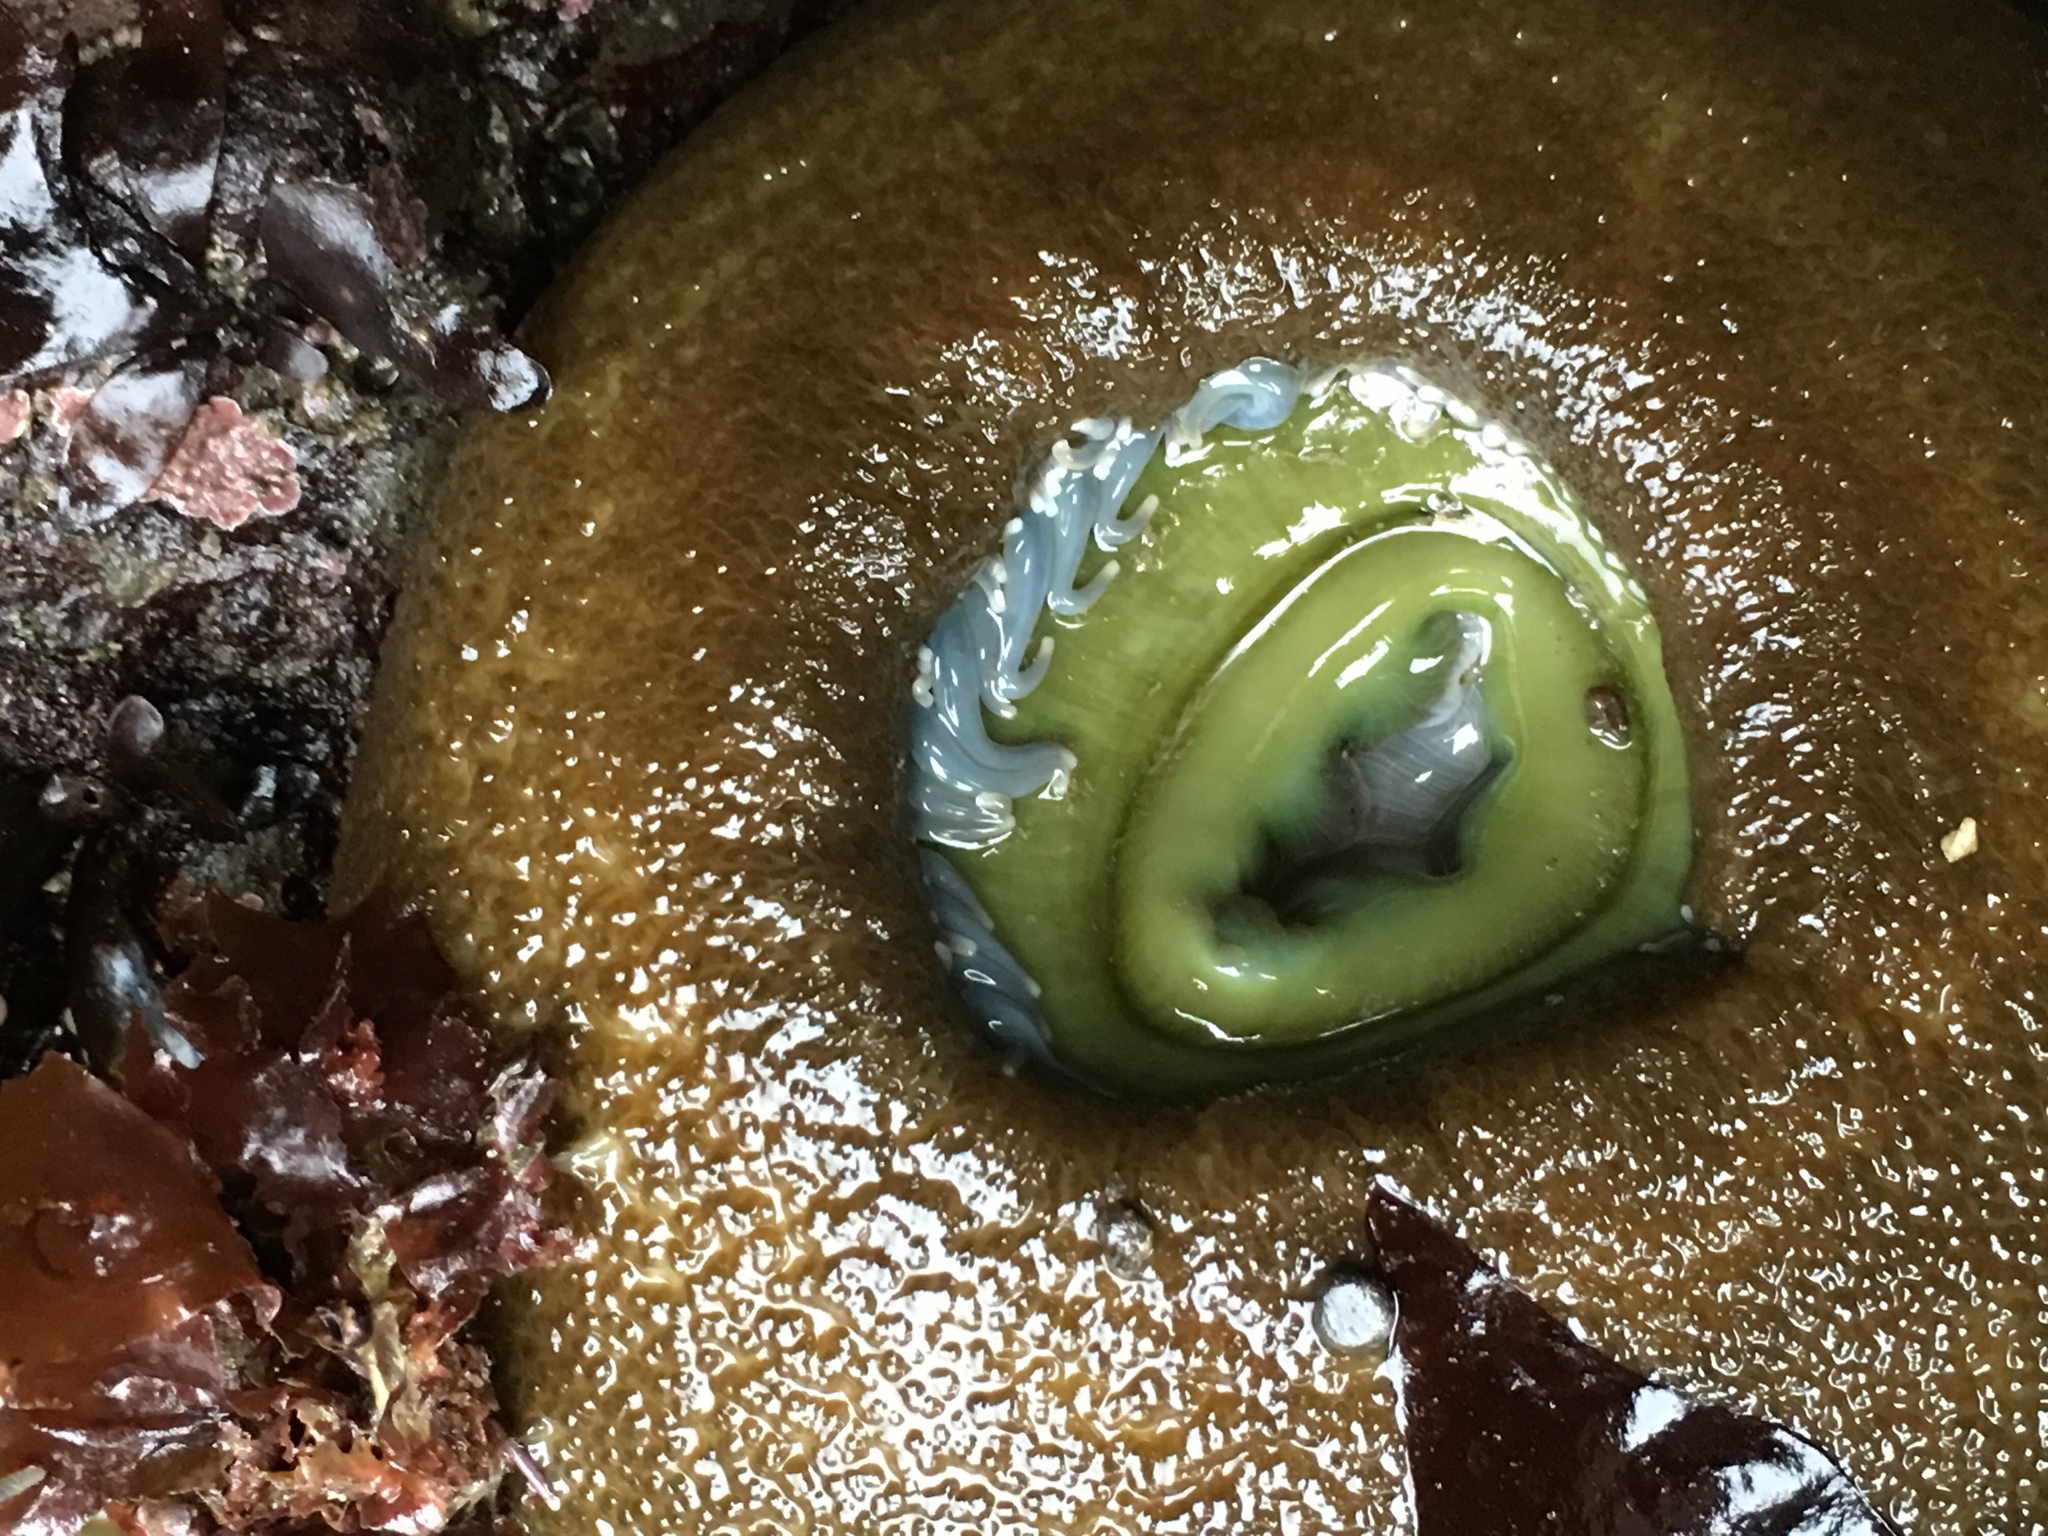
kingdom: Animalia
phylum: Cnidaria
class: Anthozoa
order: Actiniaria
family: Actiniidae
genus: Anthopleura
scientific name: Anthopleura xanthogrammica
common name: Giant green anemone
